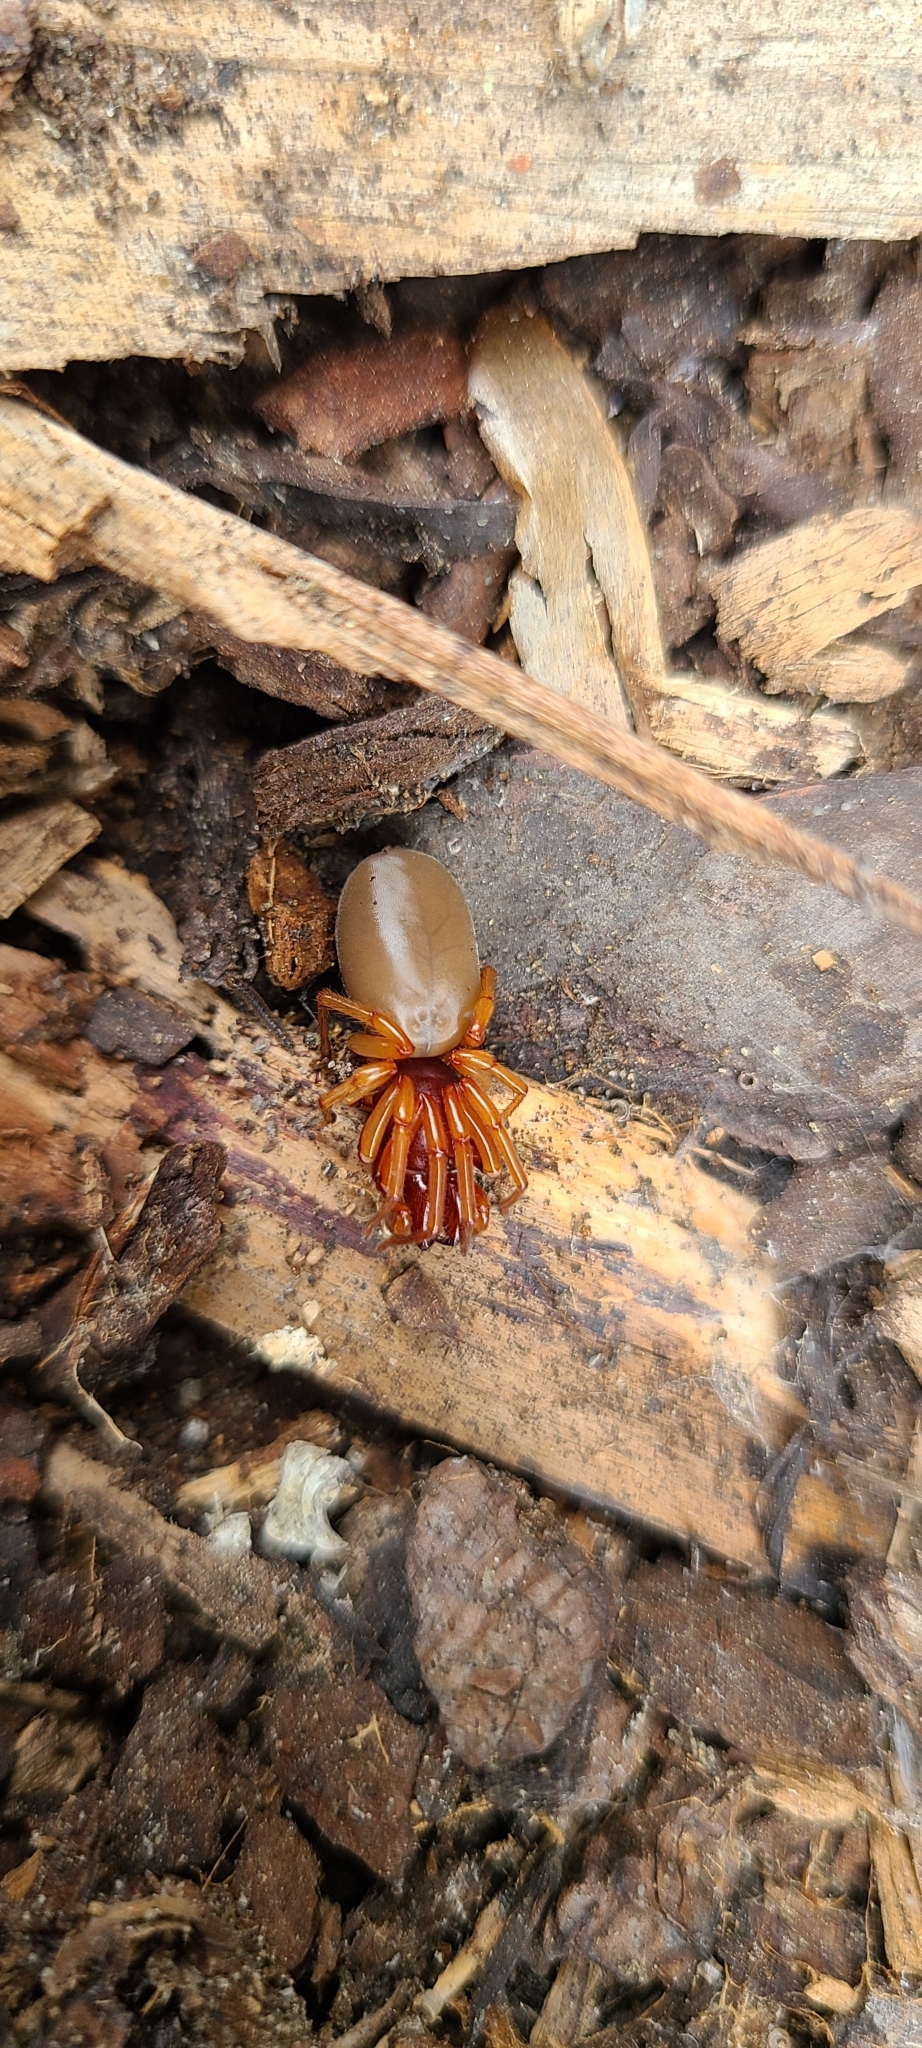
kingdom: Animalia
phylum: Arthropoda
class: Arachnida
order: Araneae
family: Dysderidae
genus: Dysdera
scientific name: Dysdera crocata
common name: Woodlouse spider
